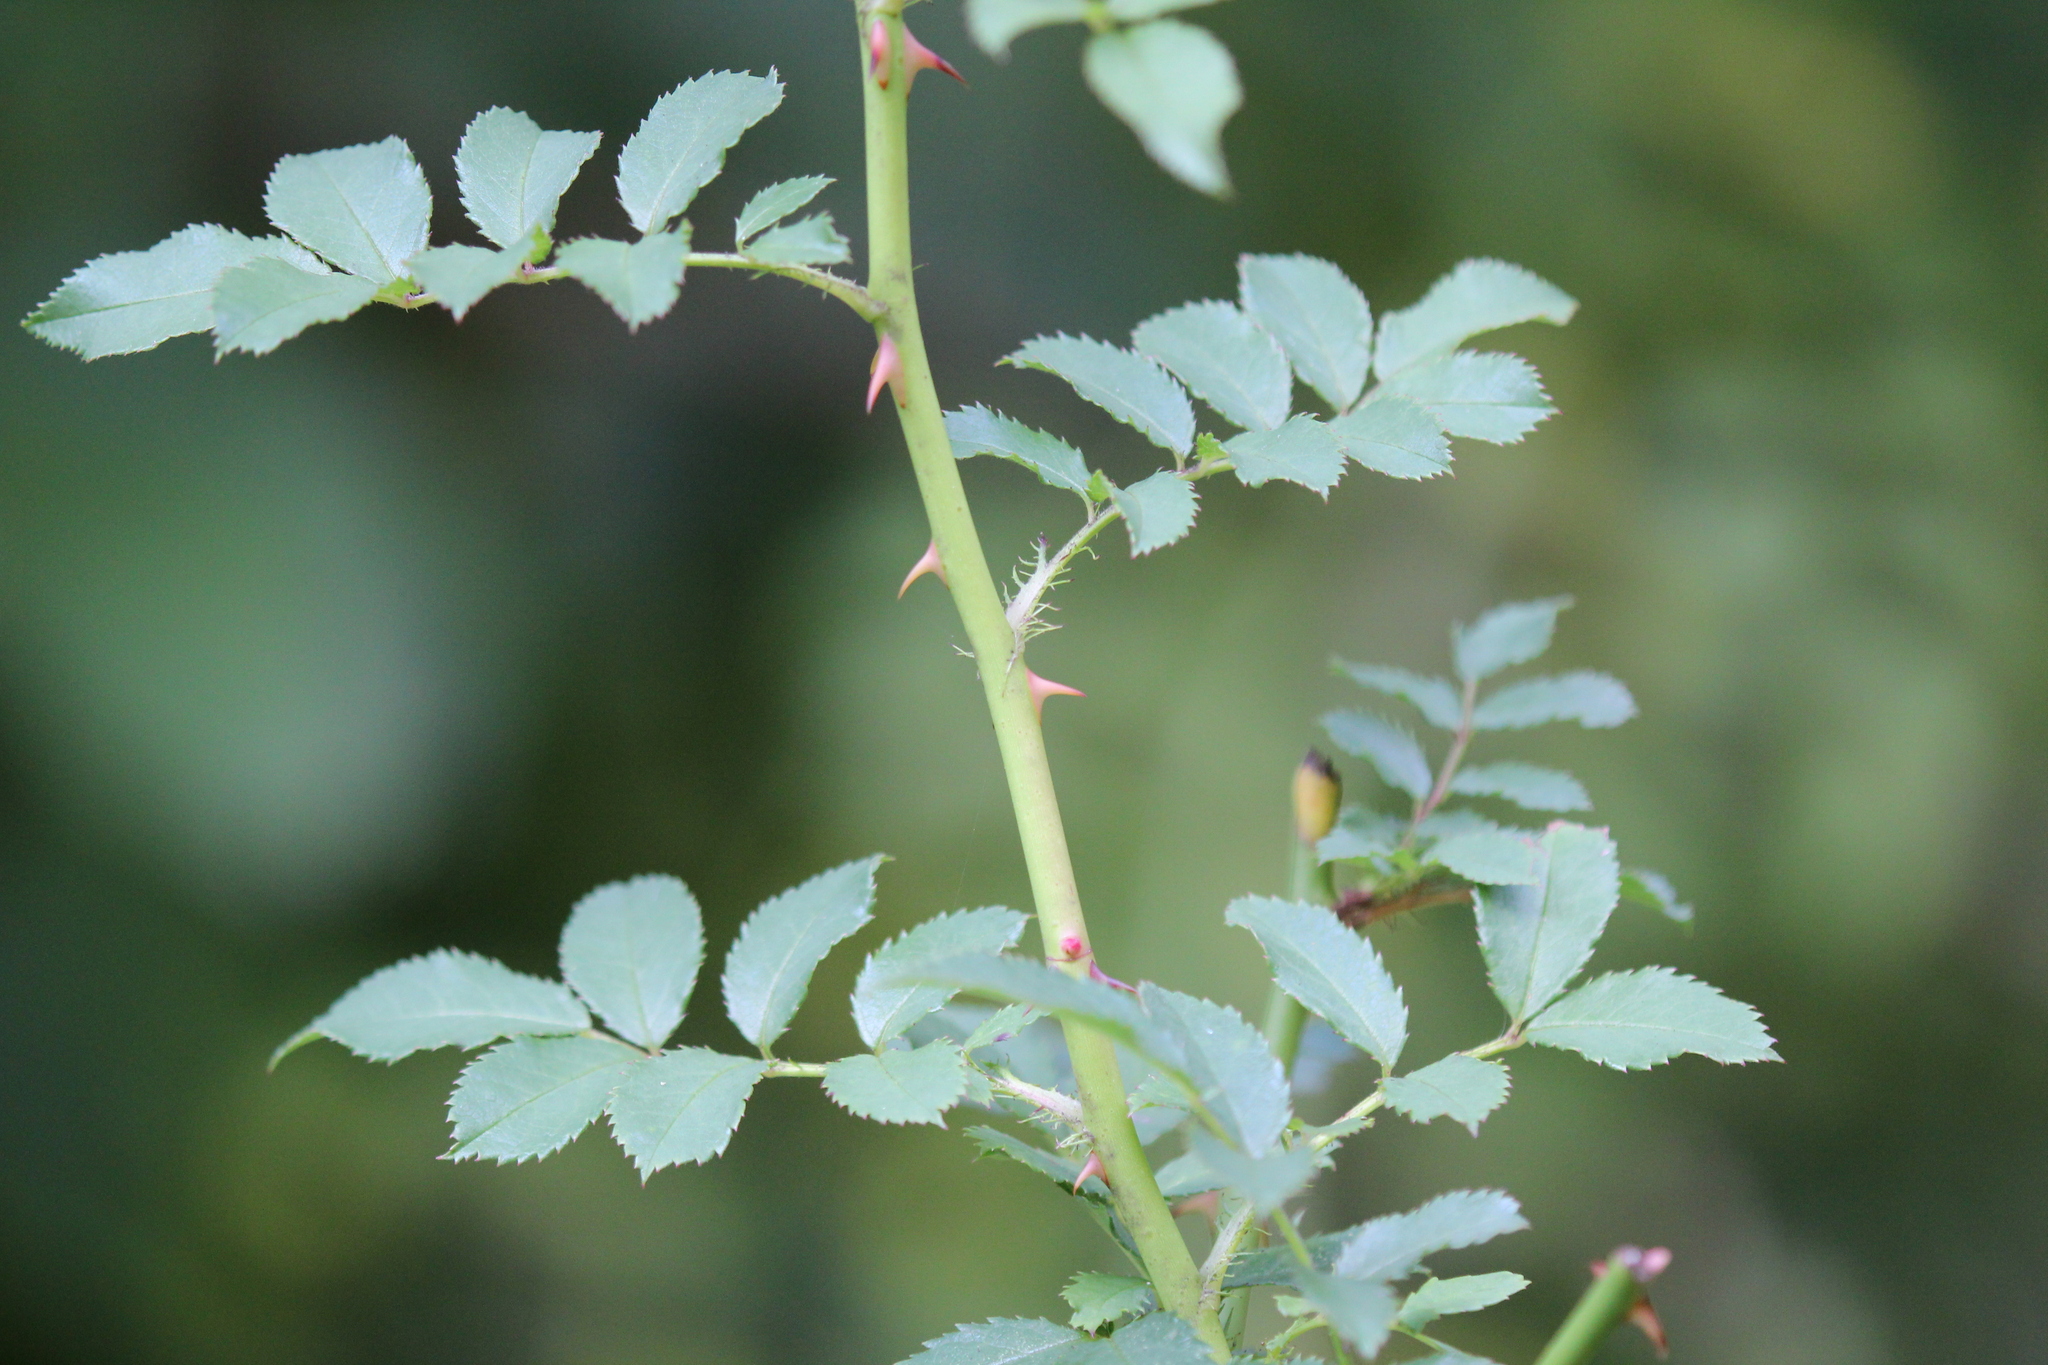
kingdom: Plantae
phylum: Tracheophyta
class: Magnoliopsida
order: Rosales
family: Rosaceae
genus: Rosa
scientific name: Rosa multiflora
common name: Multiflora rose
